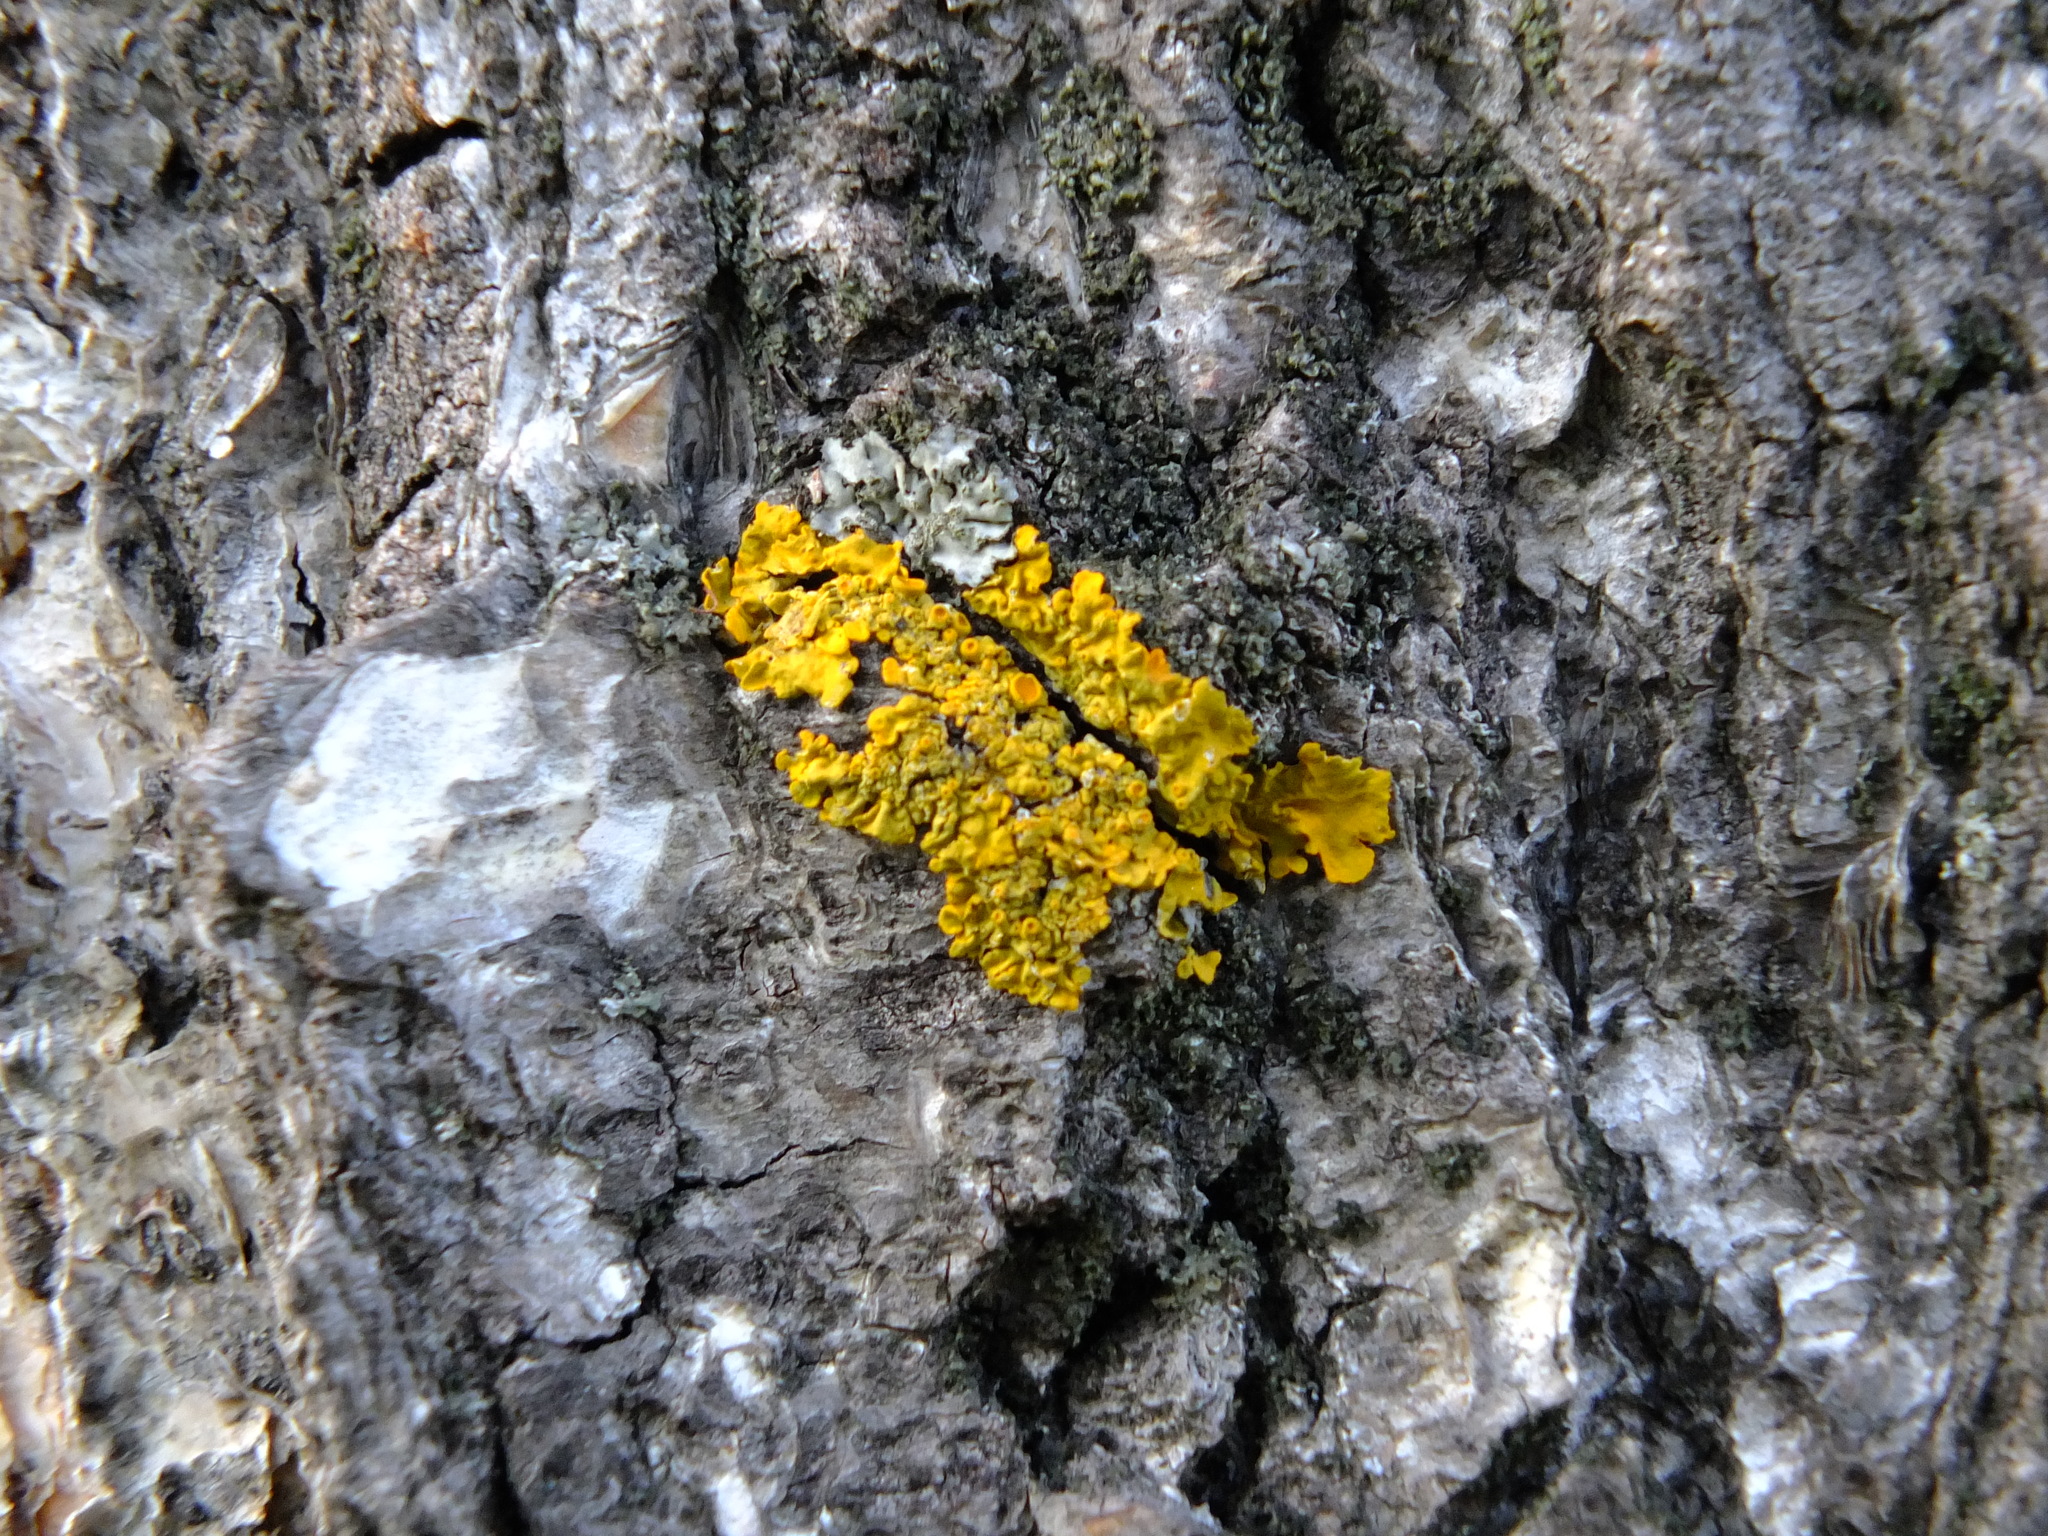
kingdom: Fungi
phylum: Ascomycota
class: Lecanoromycetes
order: Teloschistales
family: Teloschistaceae
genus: Xanthoria
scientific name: Xanthoria parietina
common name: Common orange lichen
